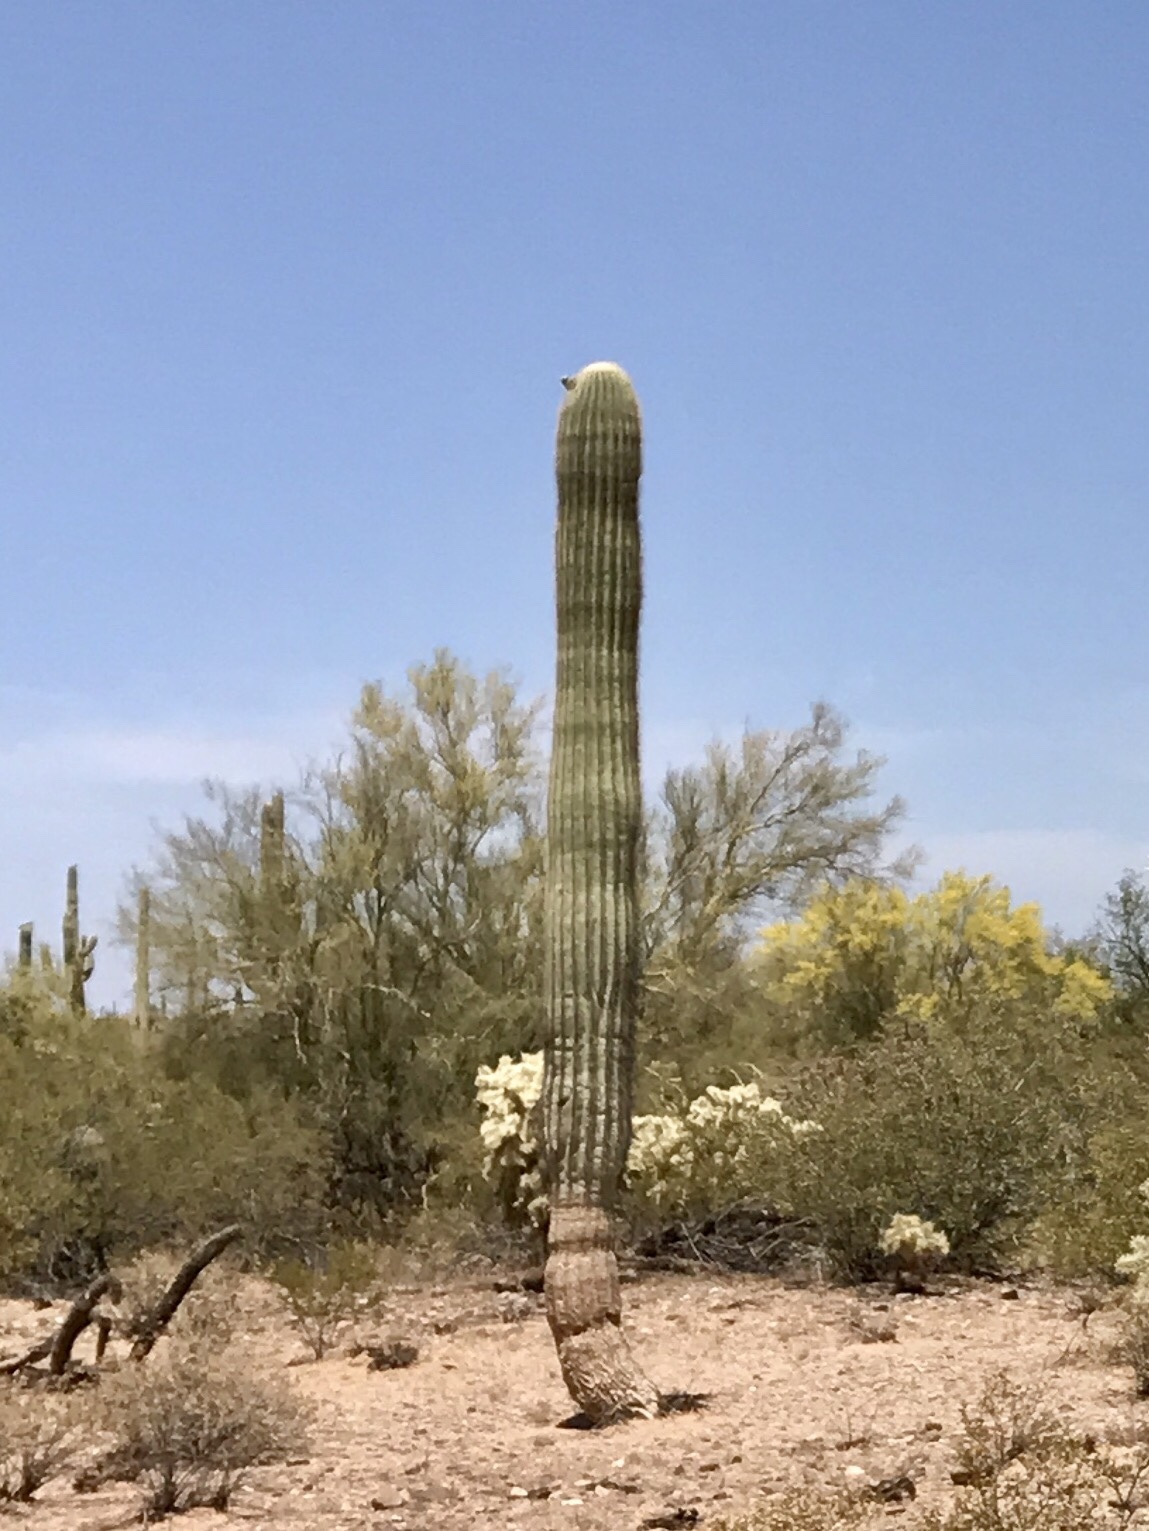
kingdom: Plantae
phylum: Tracheophyta
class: Magnoliopsida
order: Caryophyllales
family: Cactaceae
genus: Carnegiea
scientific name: Carnegiea gigantea
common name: Saguaro
